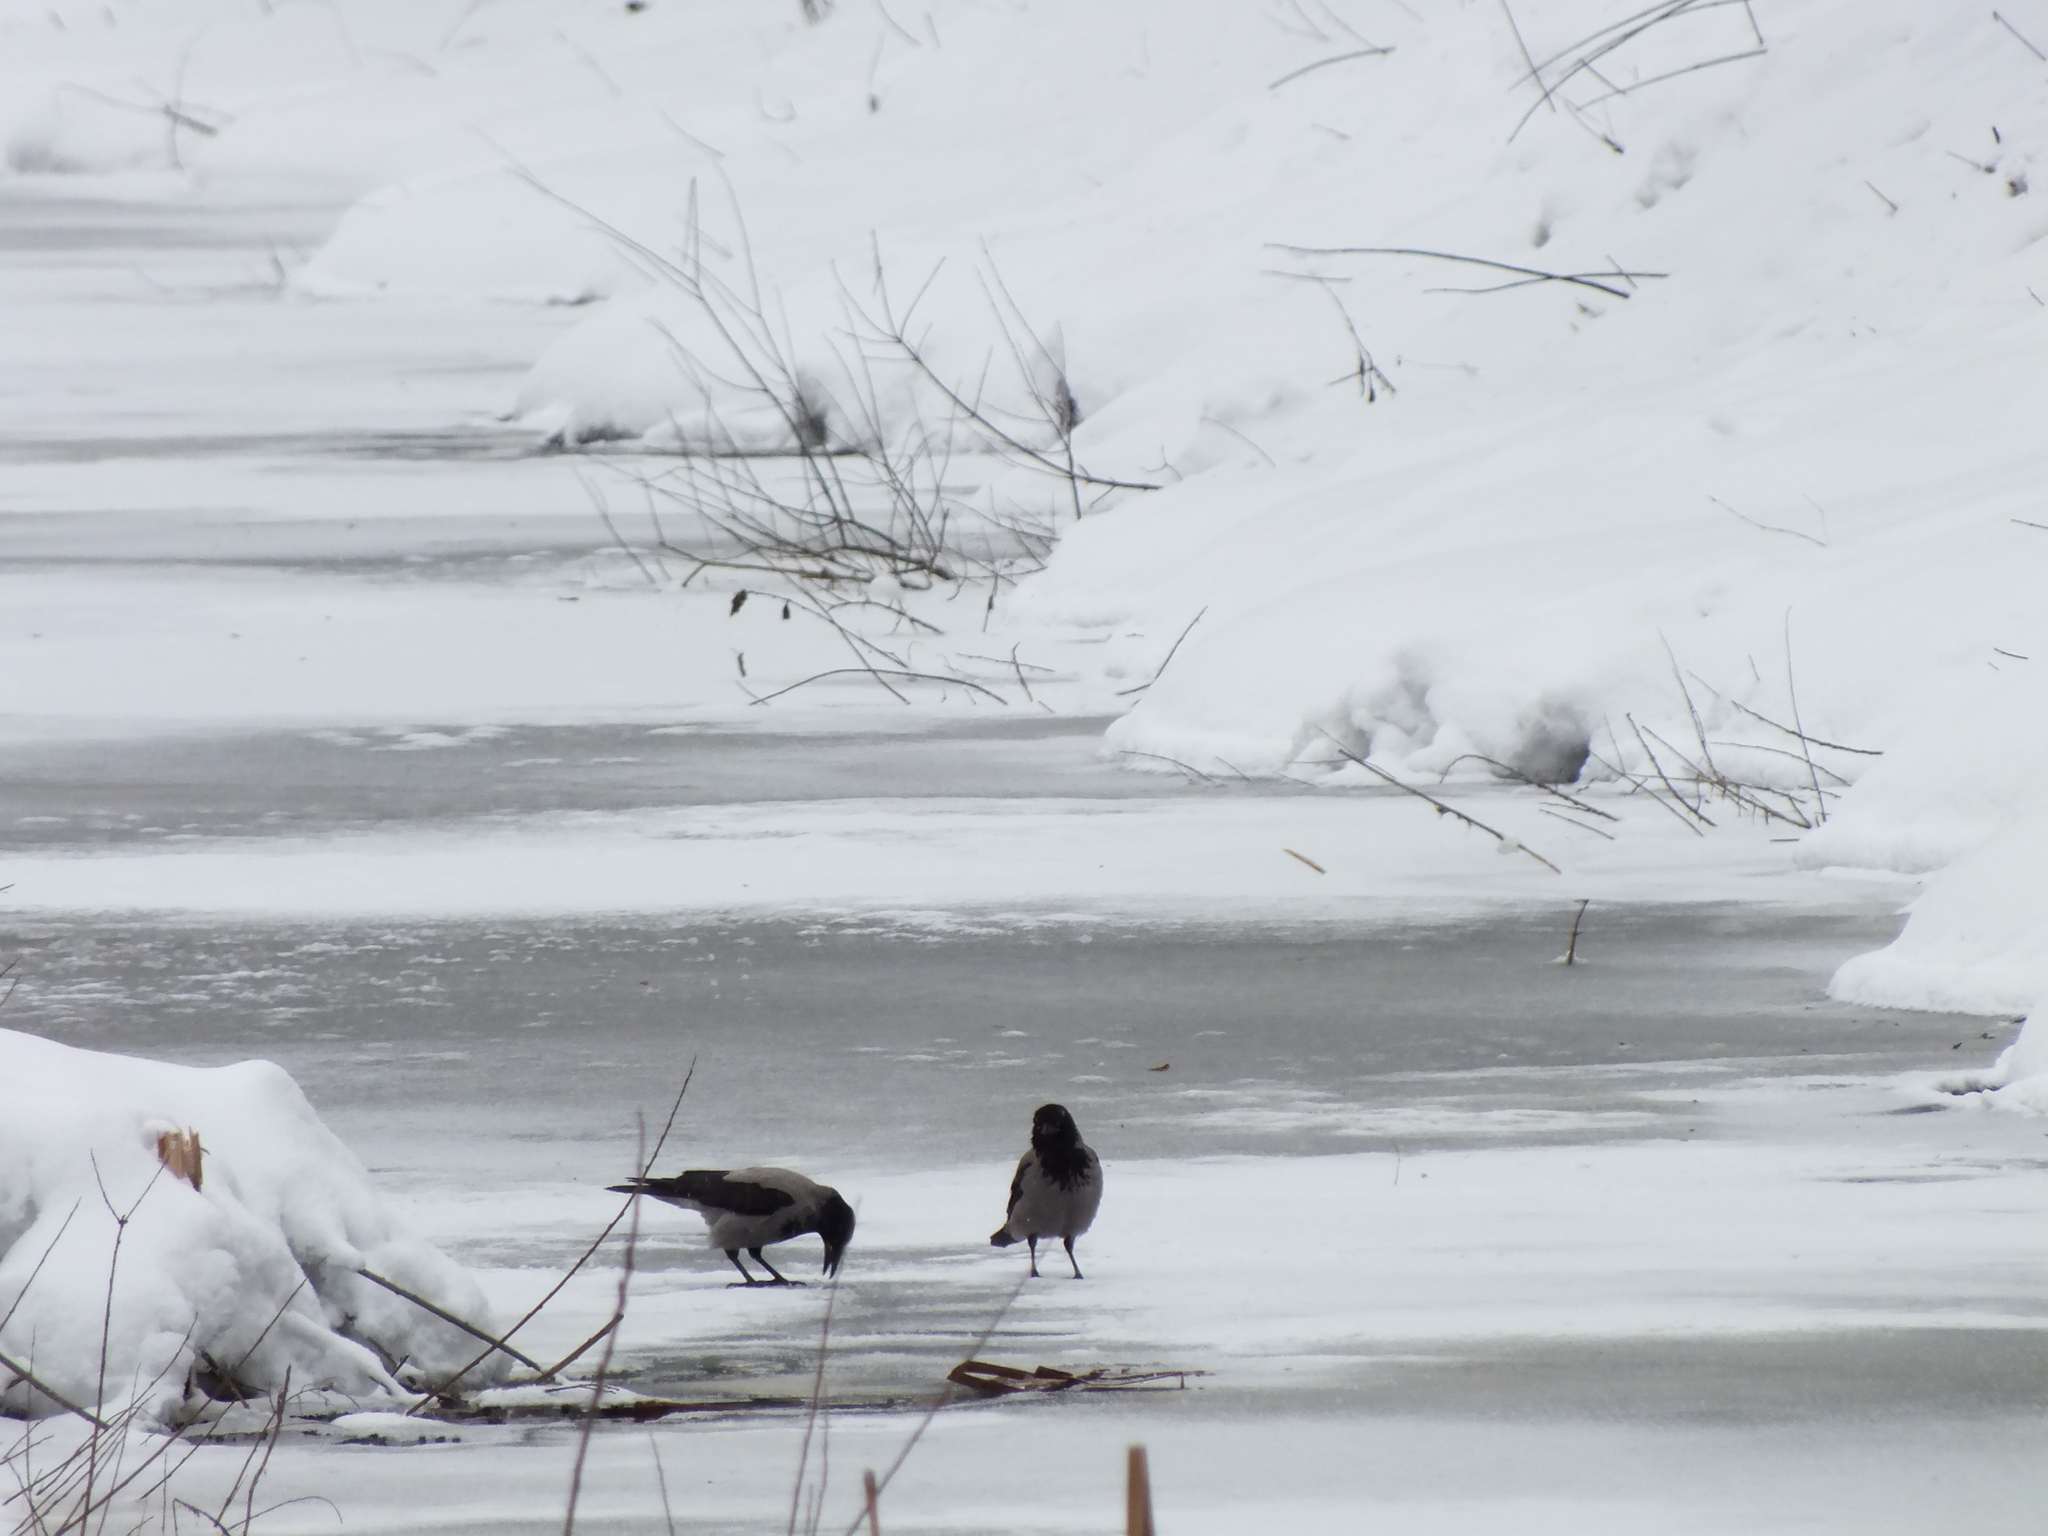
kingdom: Animalia
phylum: Chordata
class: Aves
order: Passeriformes
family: Corvidae
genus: Corvus
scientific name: Corvus cornix
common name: Hooded crow
